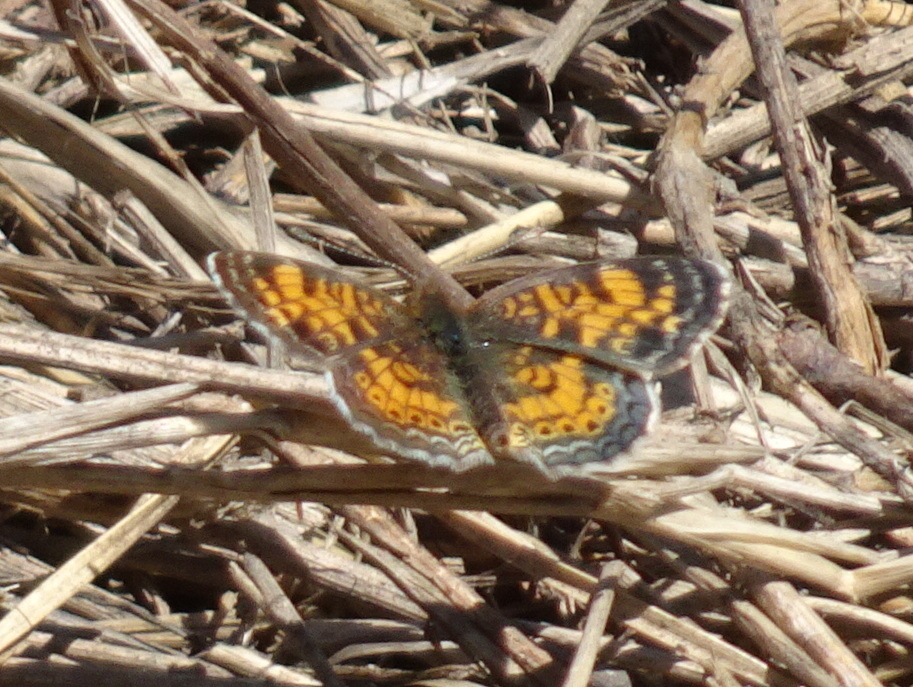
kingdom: Animalia
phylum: Arthropoda
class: Insecta
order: Lepidoptera
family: Nymphalidae
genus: Phyciodes
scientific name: Phyciodes tharos
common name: Pearl crescent
